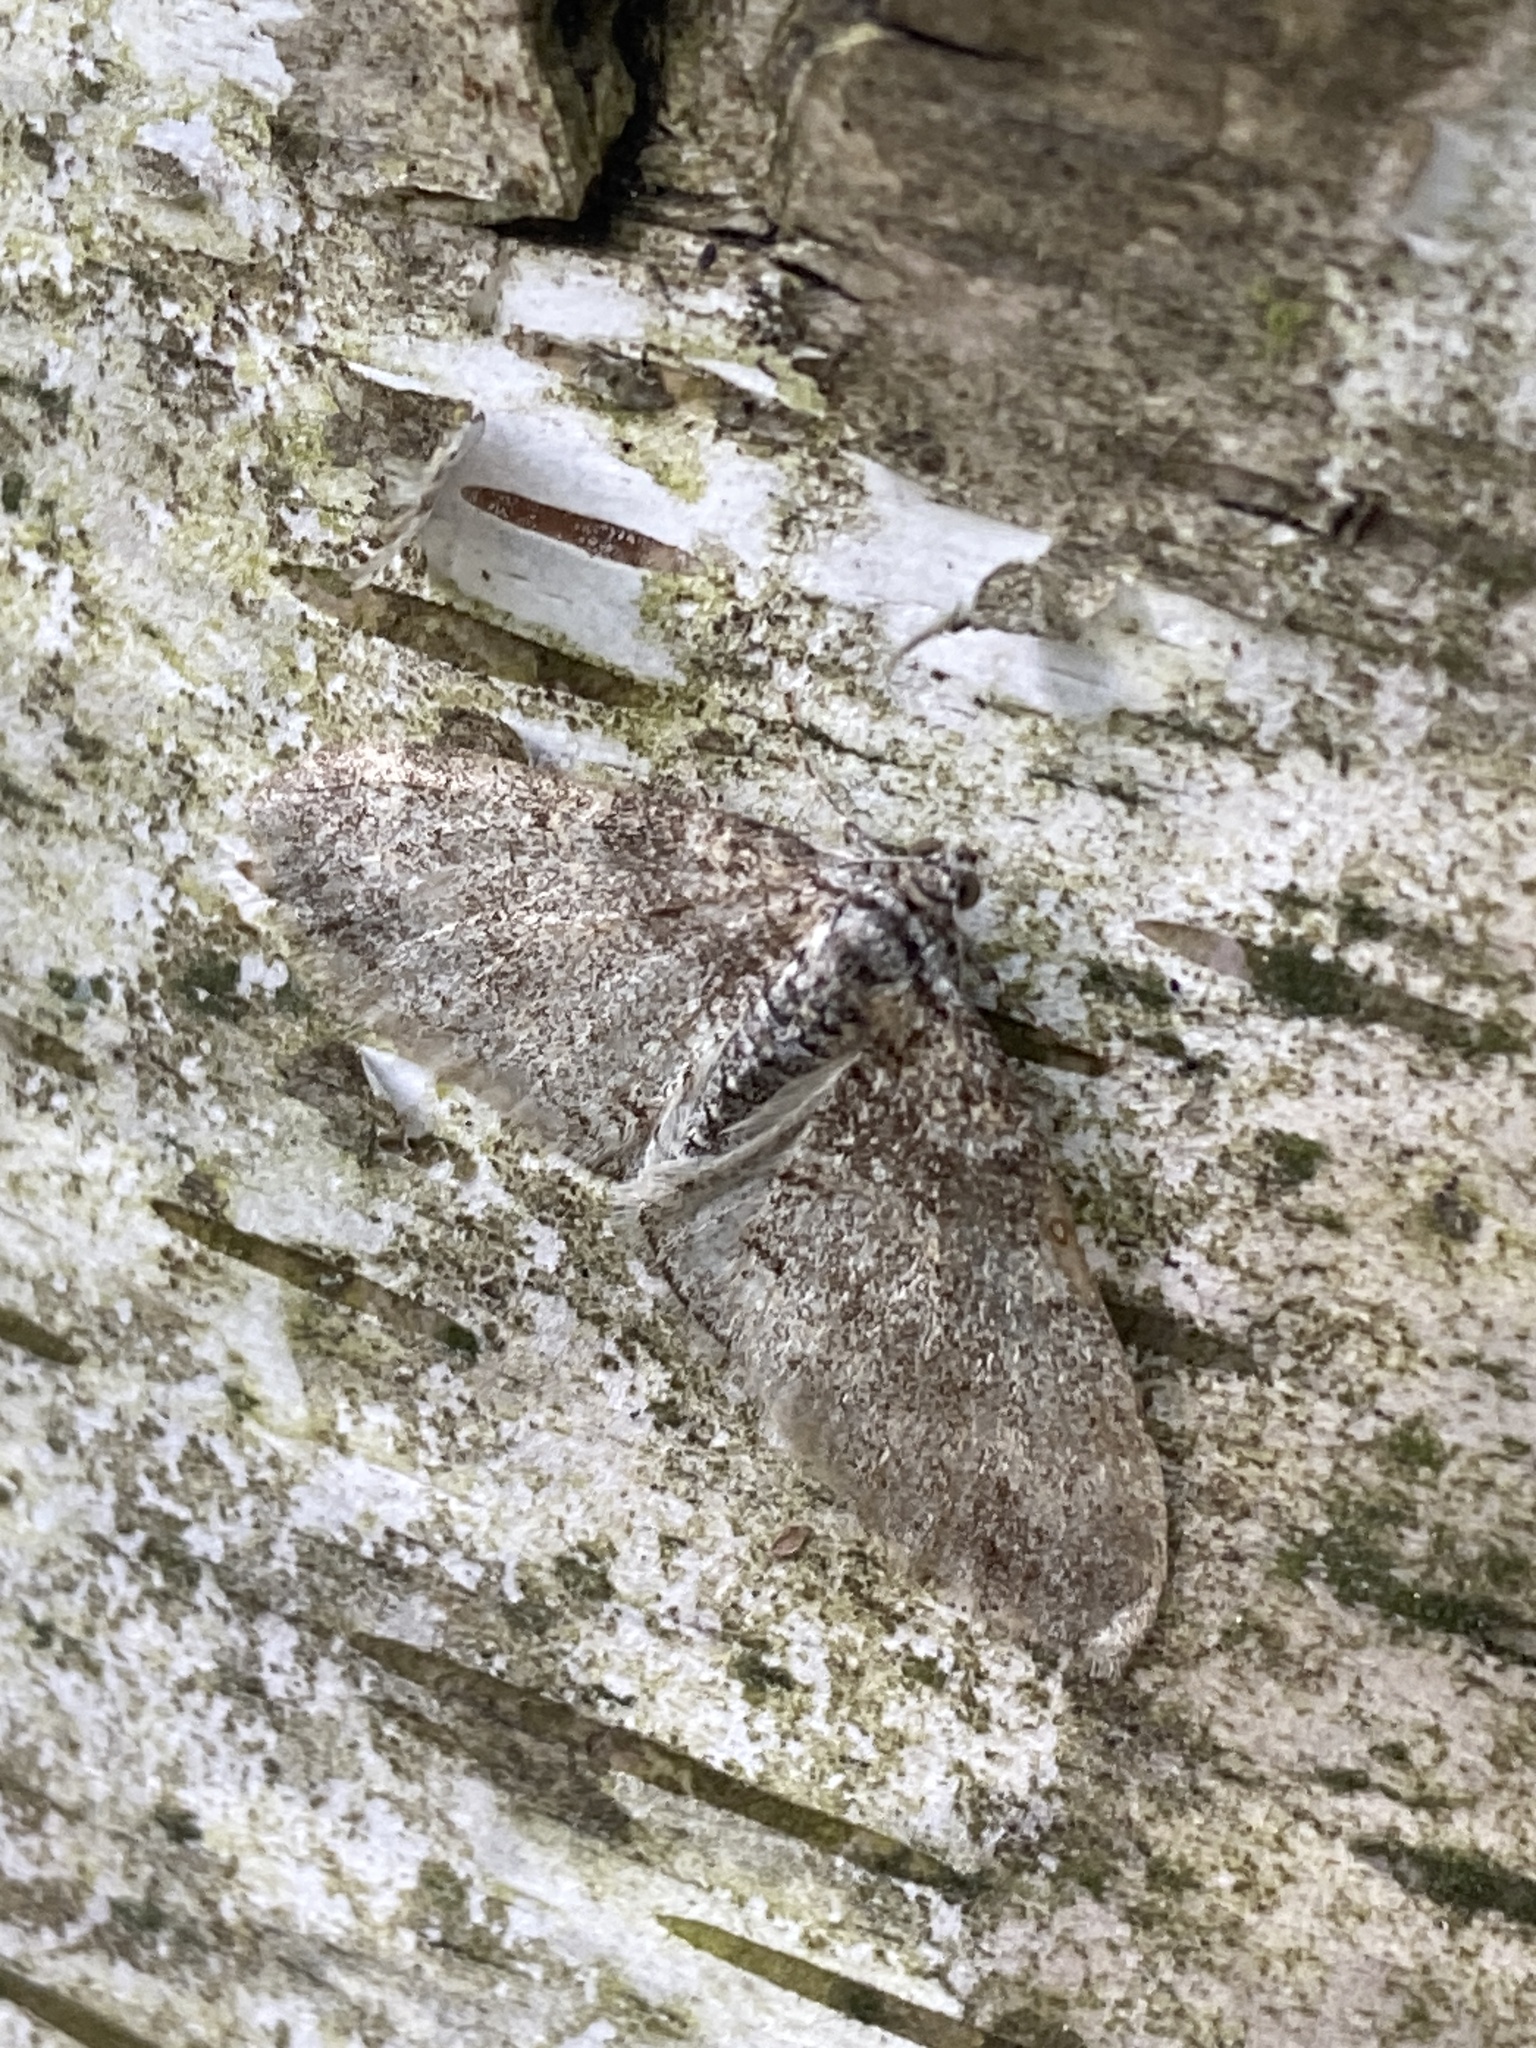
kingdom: Animalia
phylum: Arthropoda
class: Insecta
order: Lepidoptera
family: Geometridae
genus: Lobophora
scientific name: Lobophora halterata
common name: Seraphim
